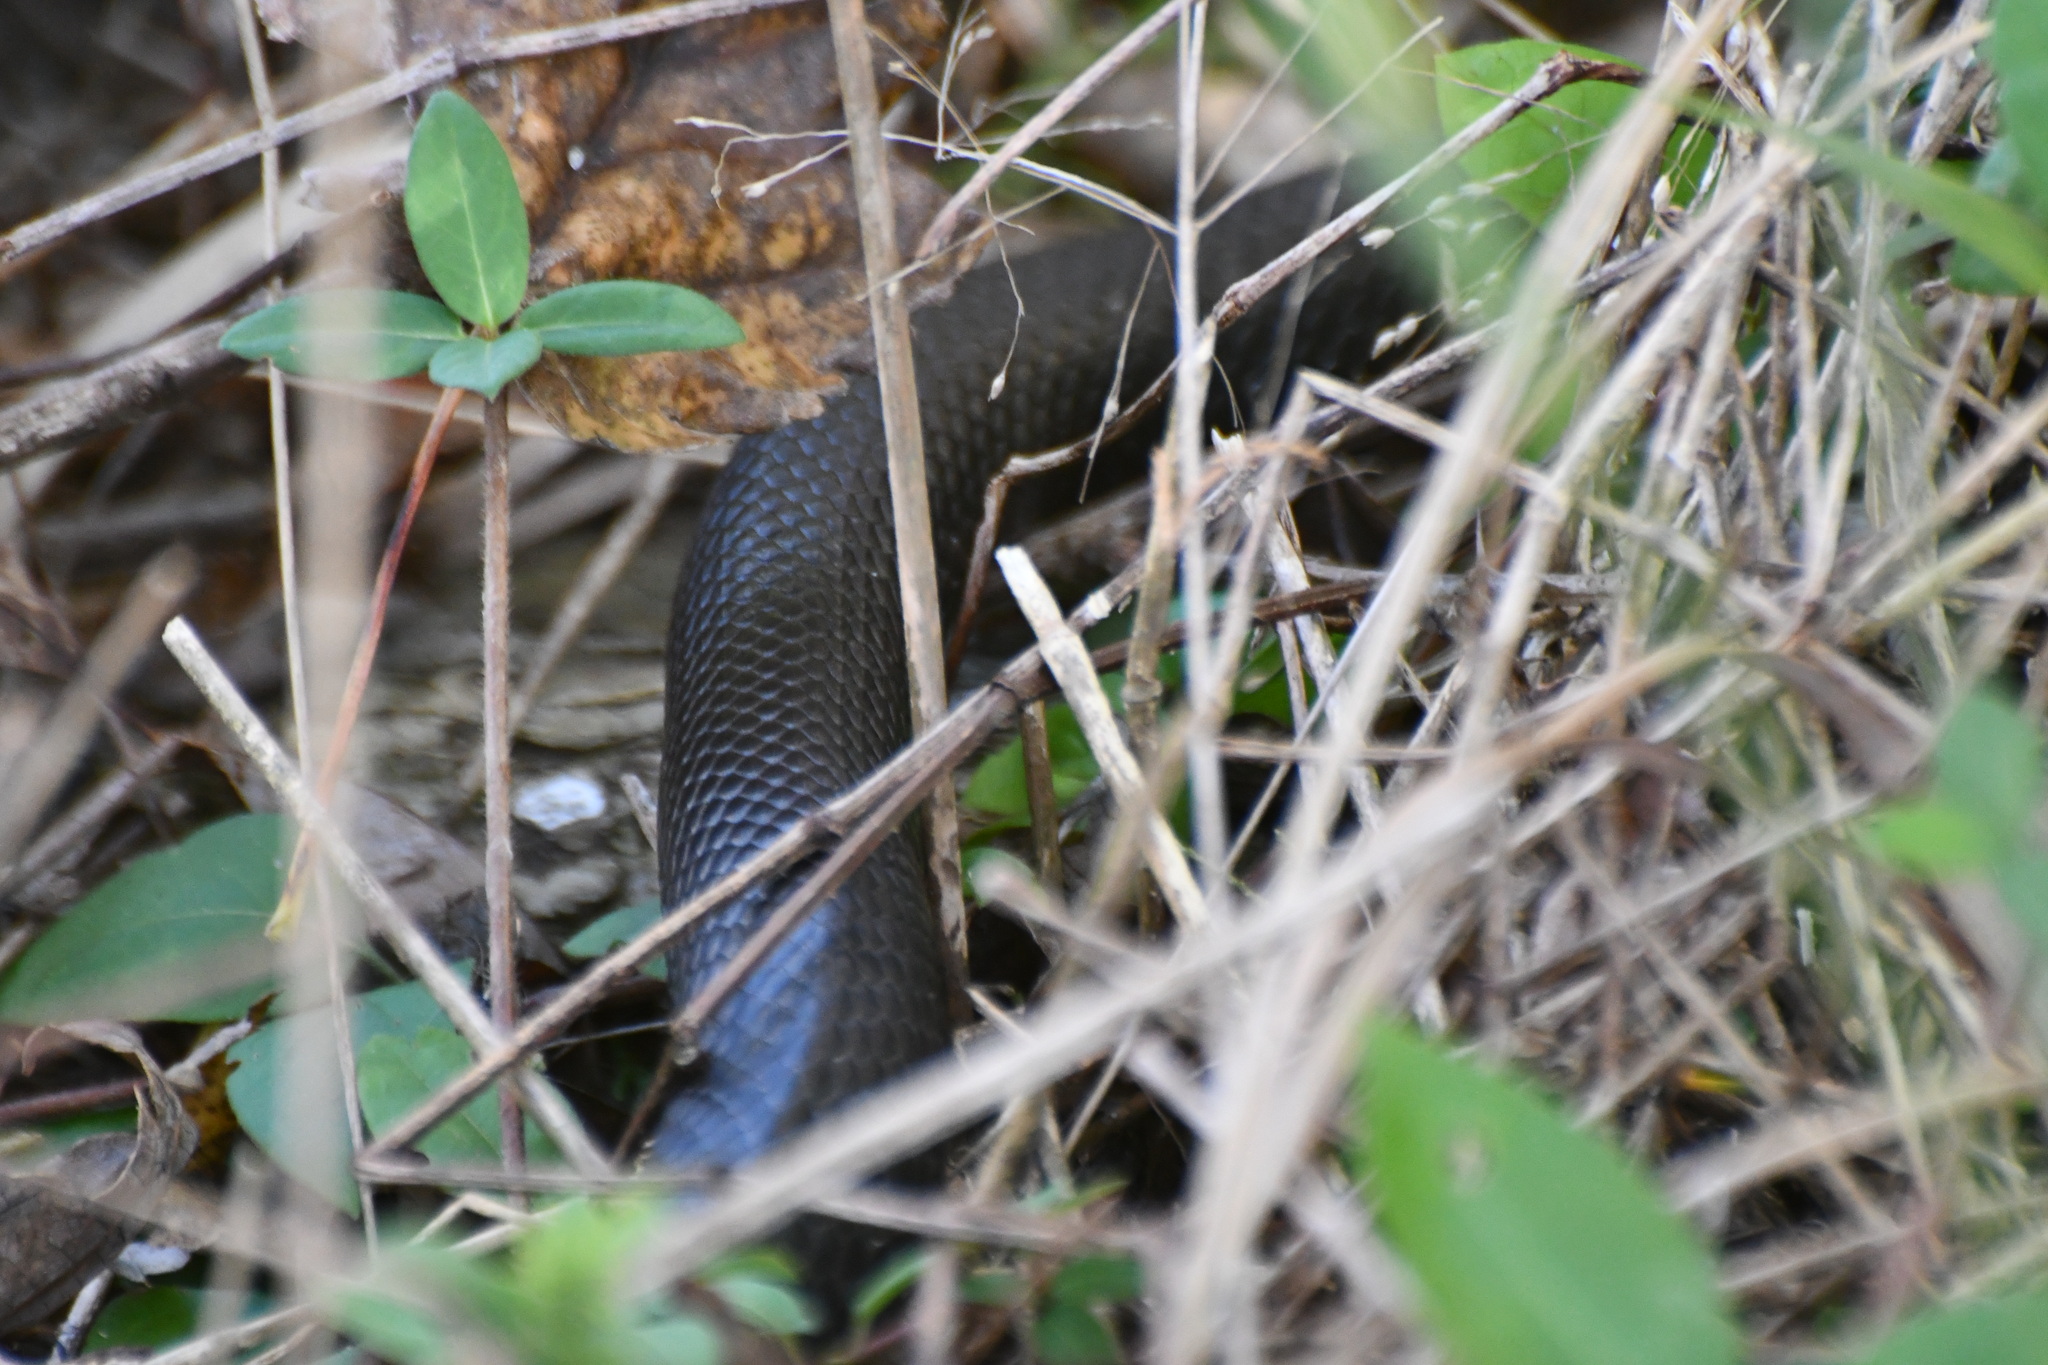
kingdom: Animalia
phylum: Chordata
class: Squamata
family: Colubridae
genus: Pantherophis
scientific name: Pantherophis
